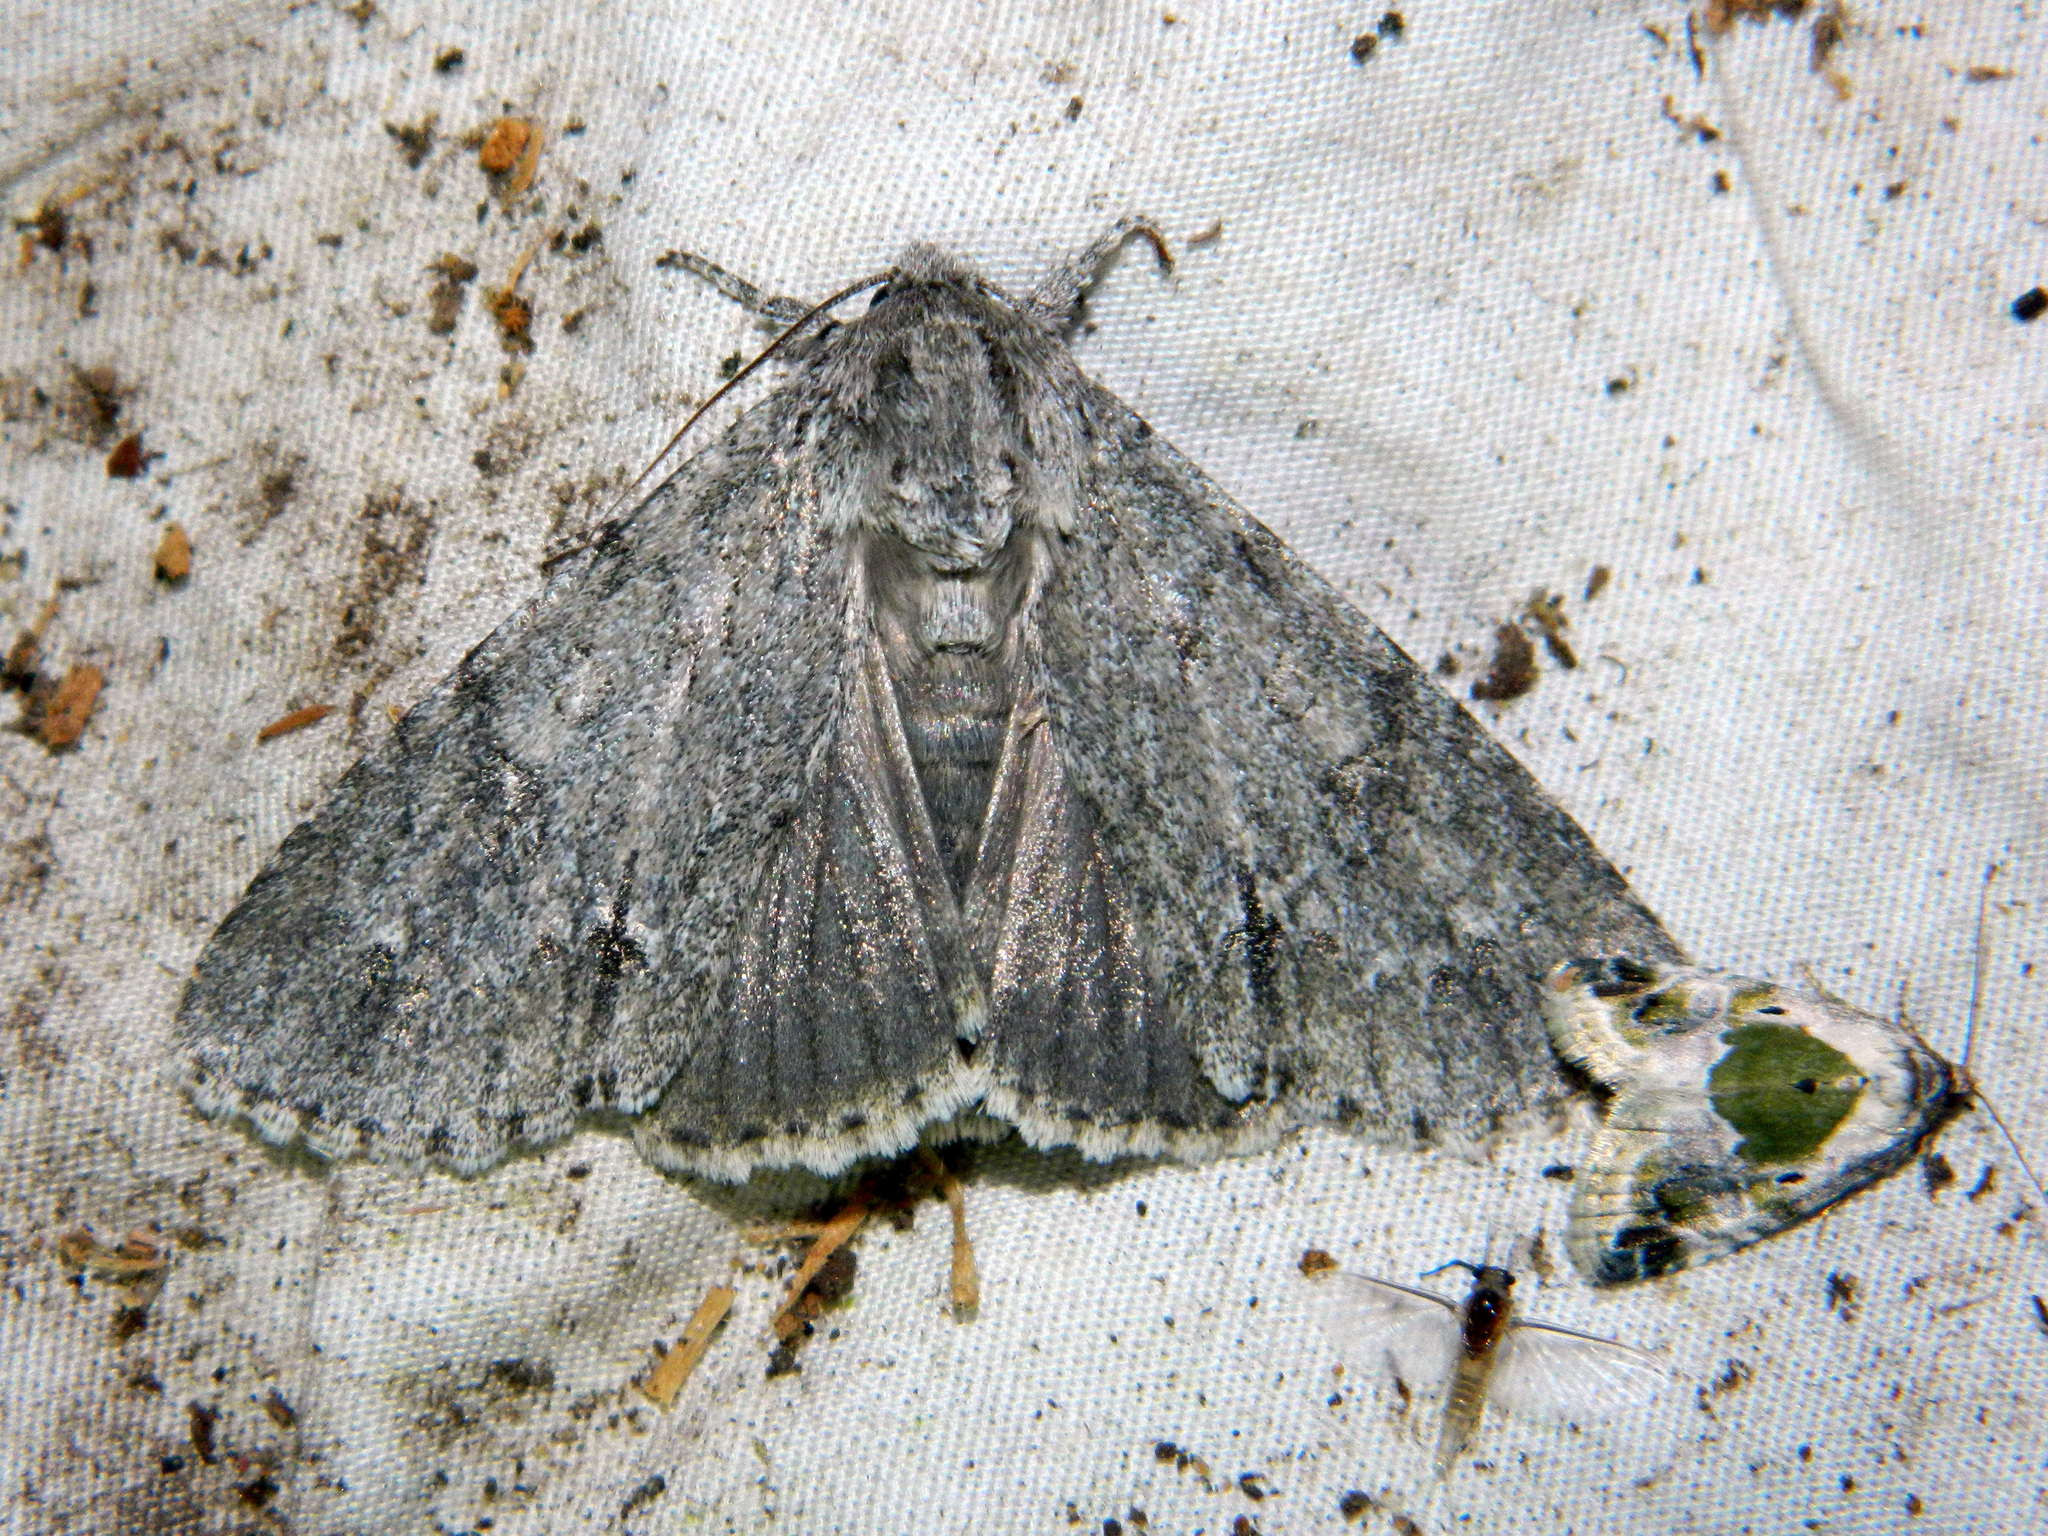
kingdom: Animalia
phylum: Arthropoda
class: Insecta
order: Lepidoptera
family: Noctuidae
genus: Acronicta
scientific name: Acronicta americana
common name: American dagger
